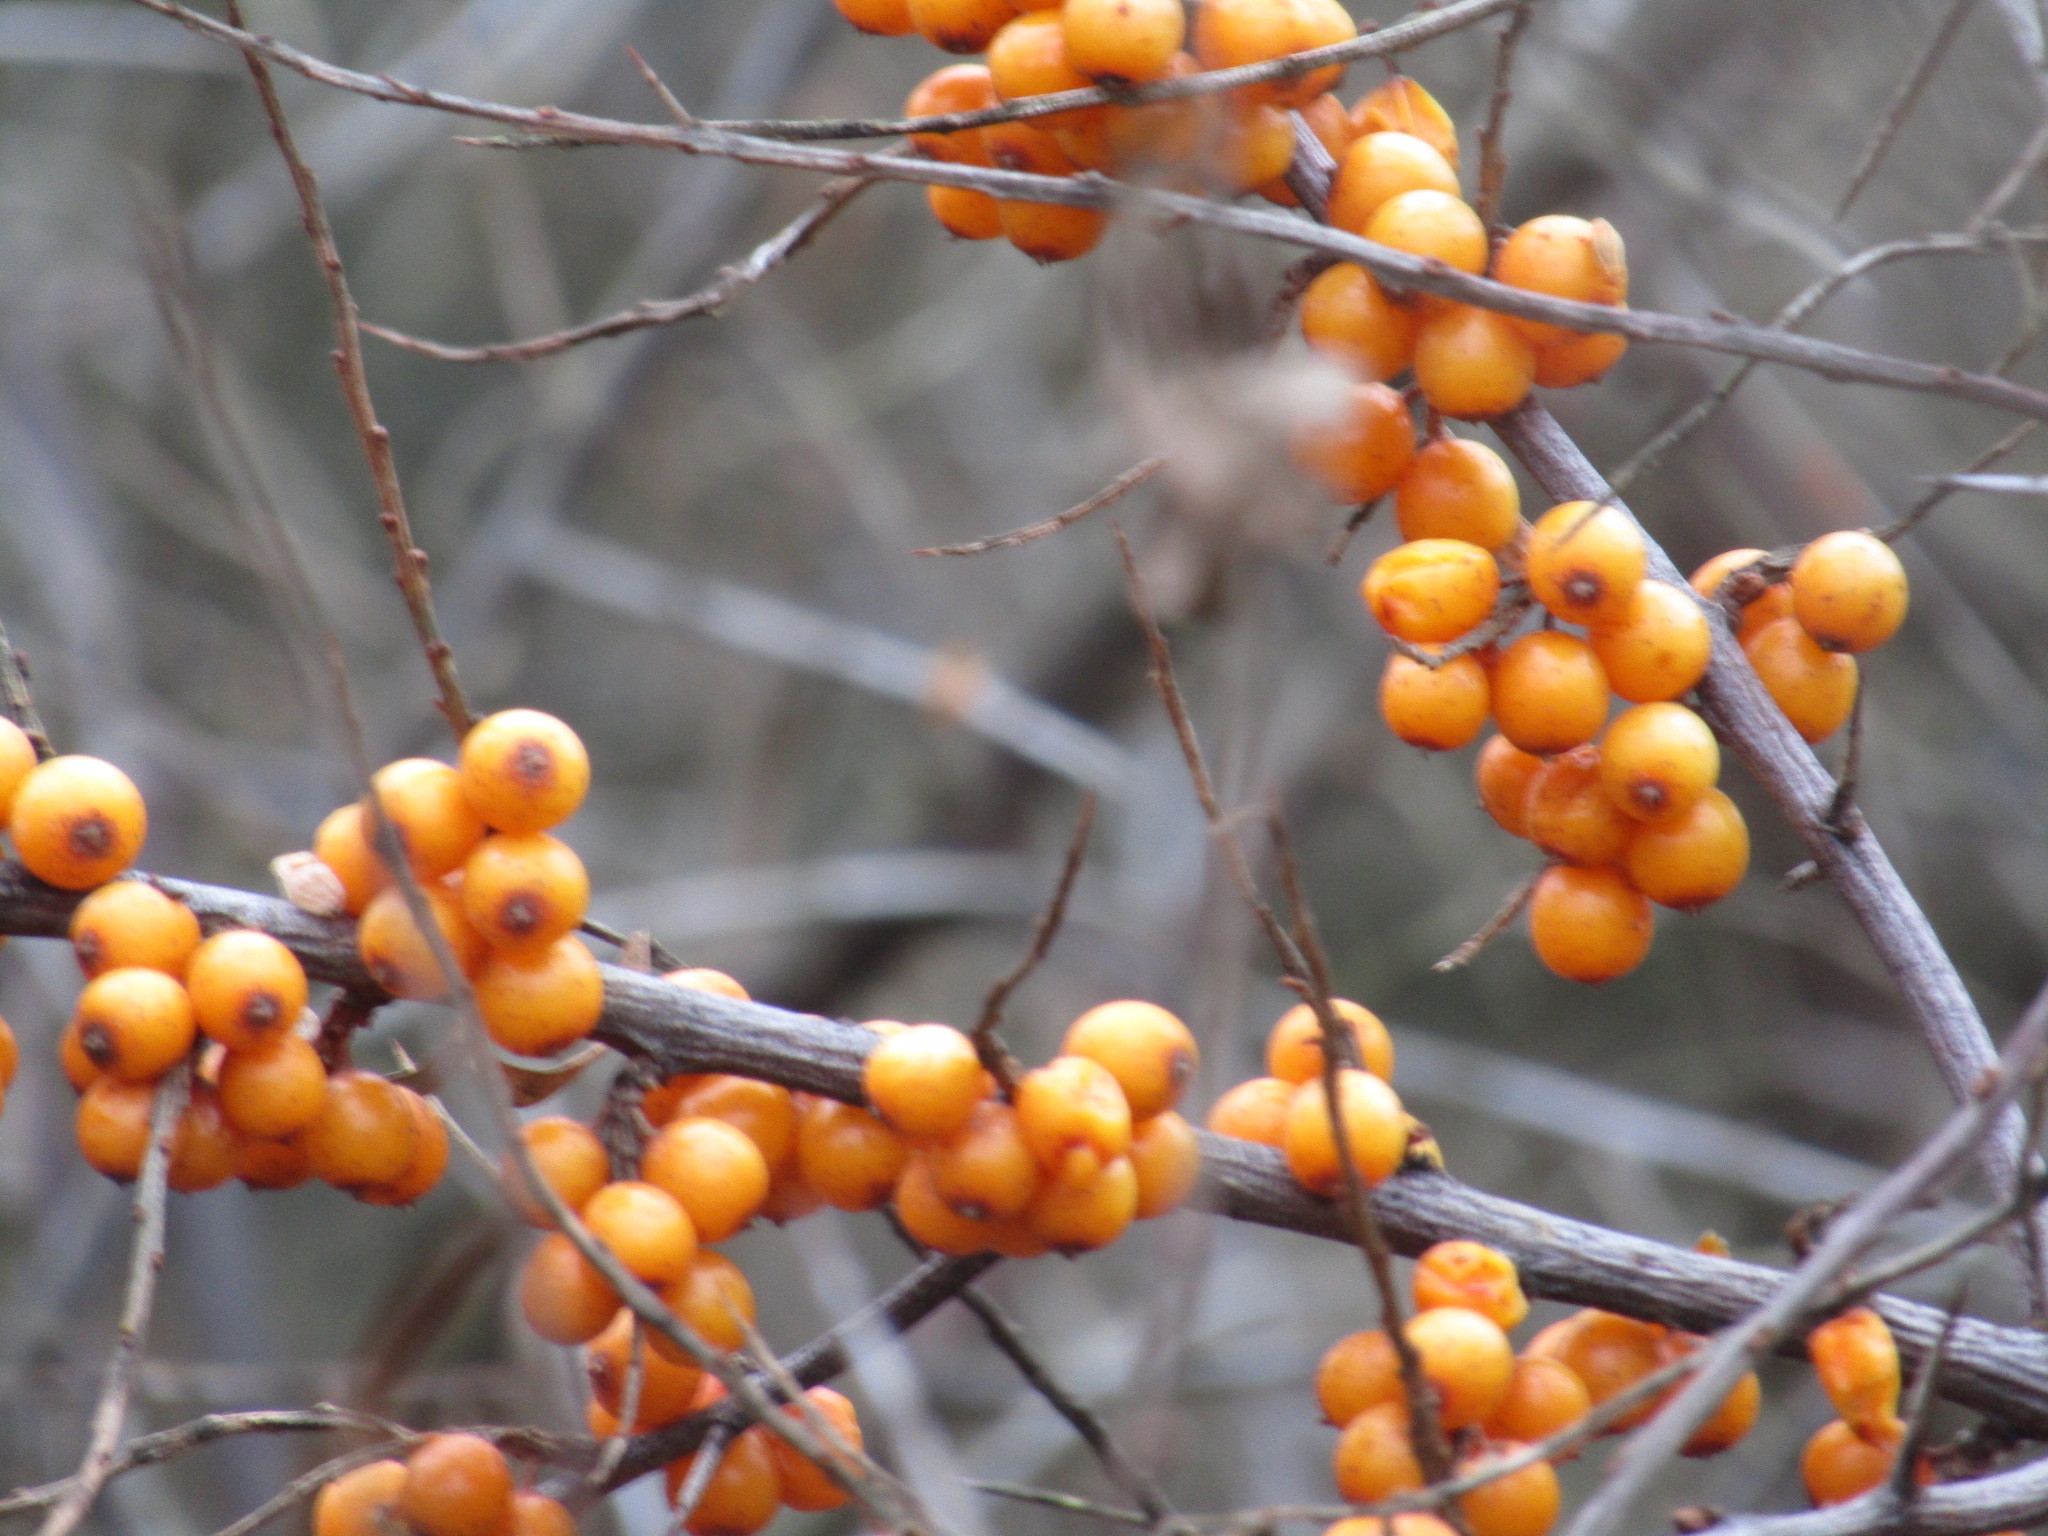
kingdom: Plantae
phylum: Tracheophyta
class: Magnoliopsida
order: Rosales
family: Elaeagnaceae
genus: Hippophae
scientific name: Hippophae rhamnoides
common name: Sea-buckthorn
